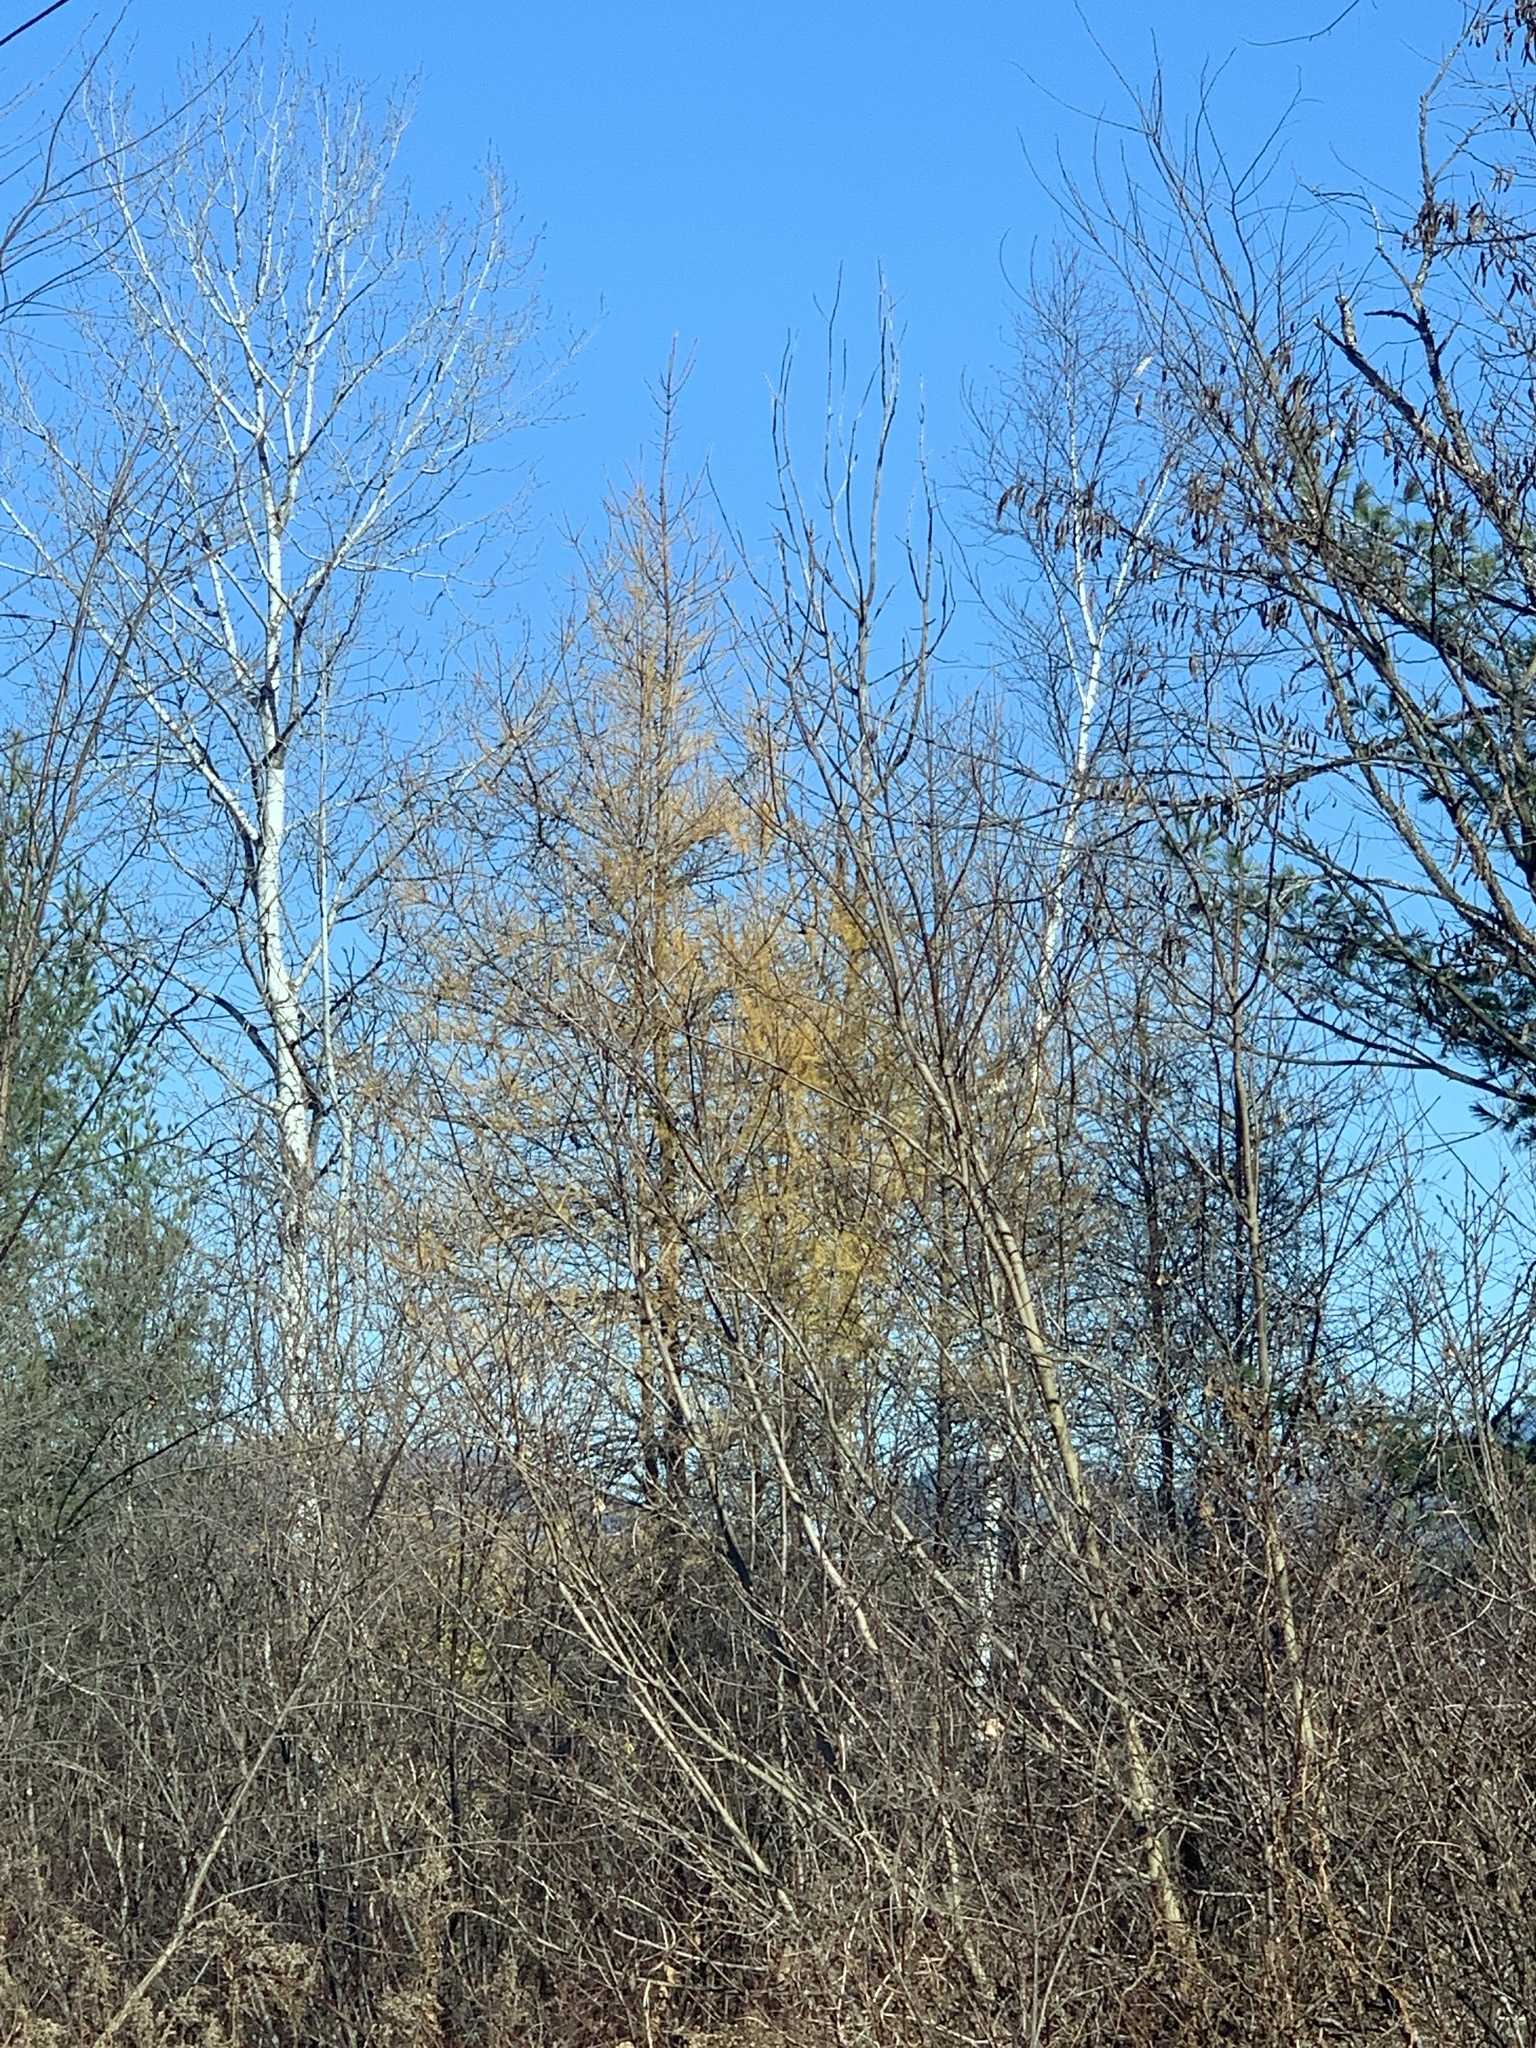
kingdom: Plantae
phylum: Tracheophyta
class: Pinopsida
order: Pinales
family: Pinaceae
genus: Larix
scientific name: Larix laricina
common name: American larch
